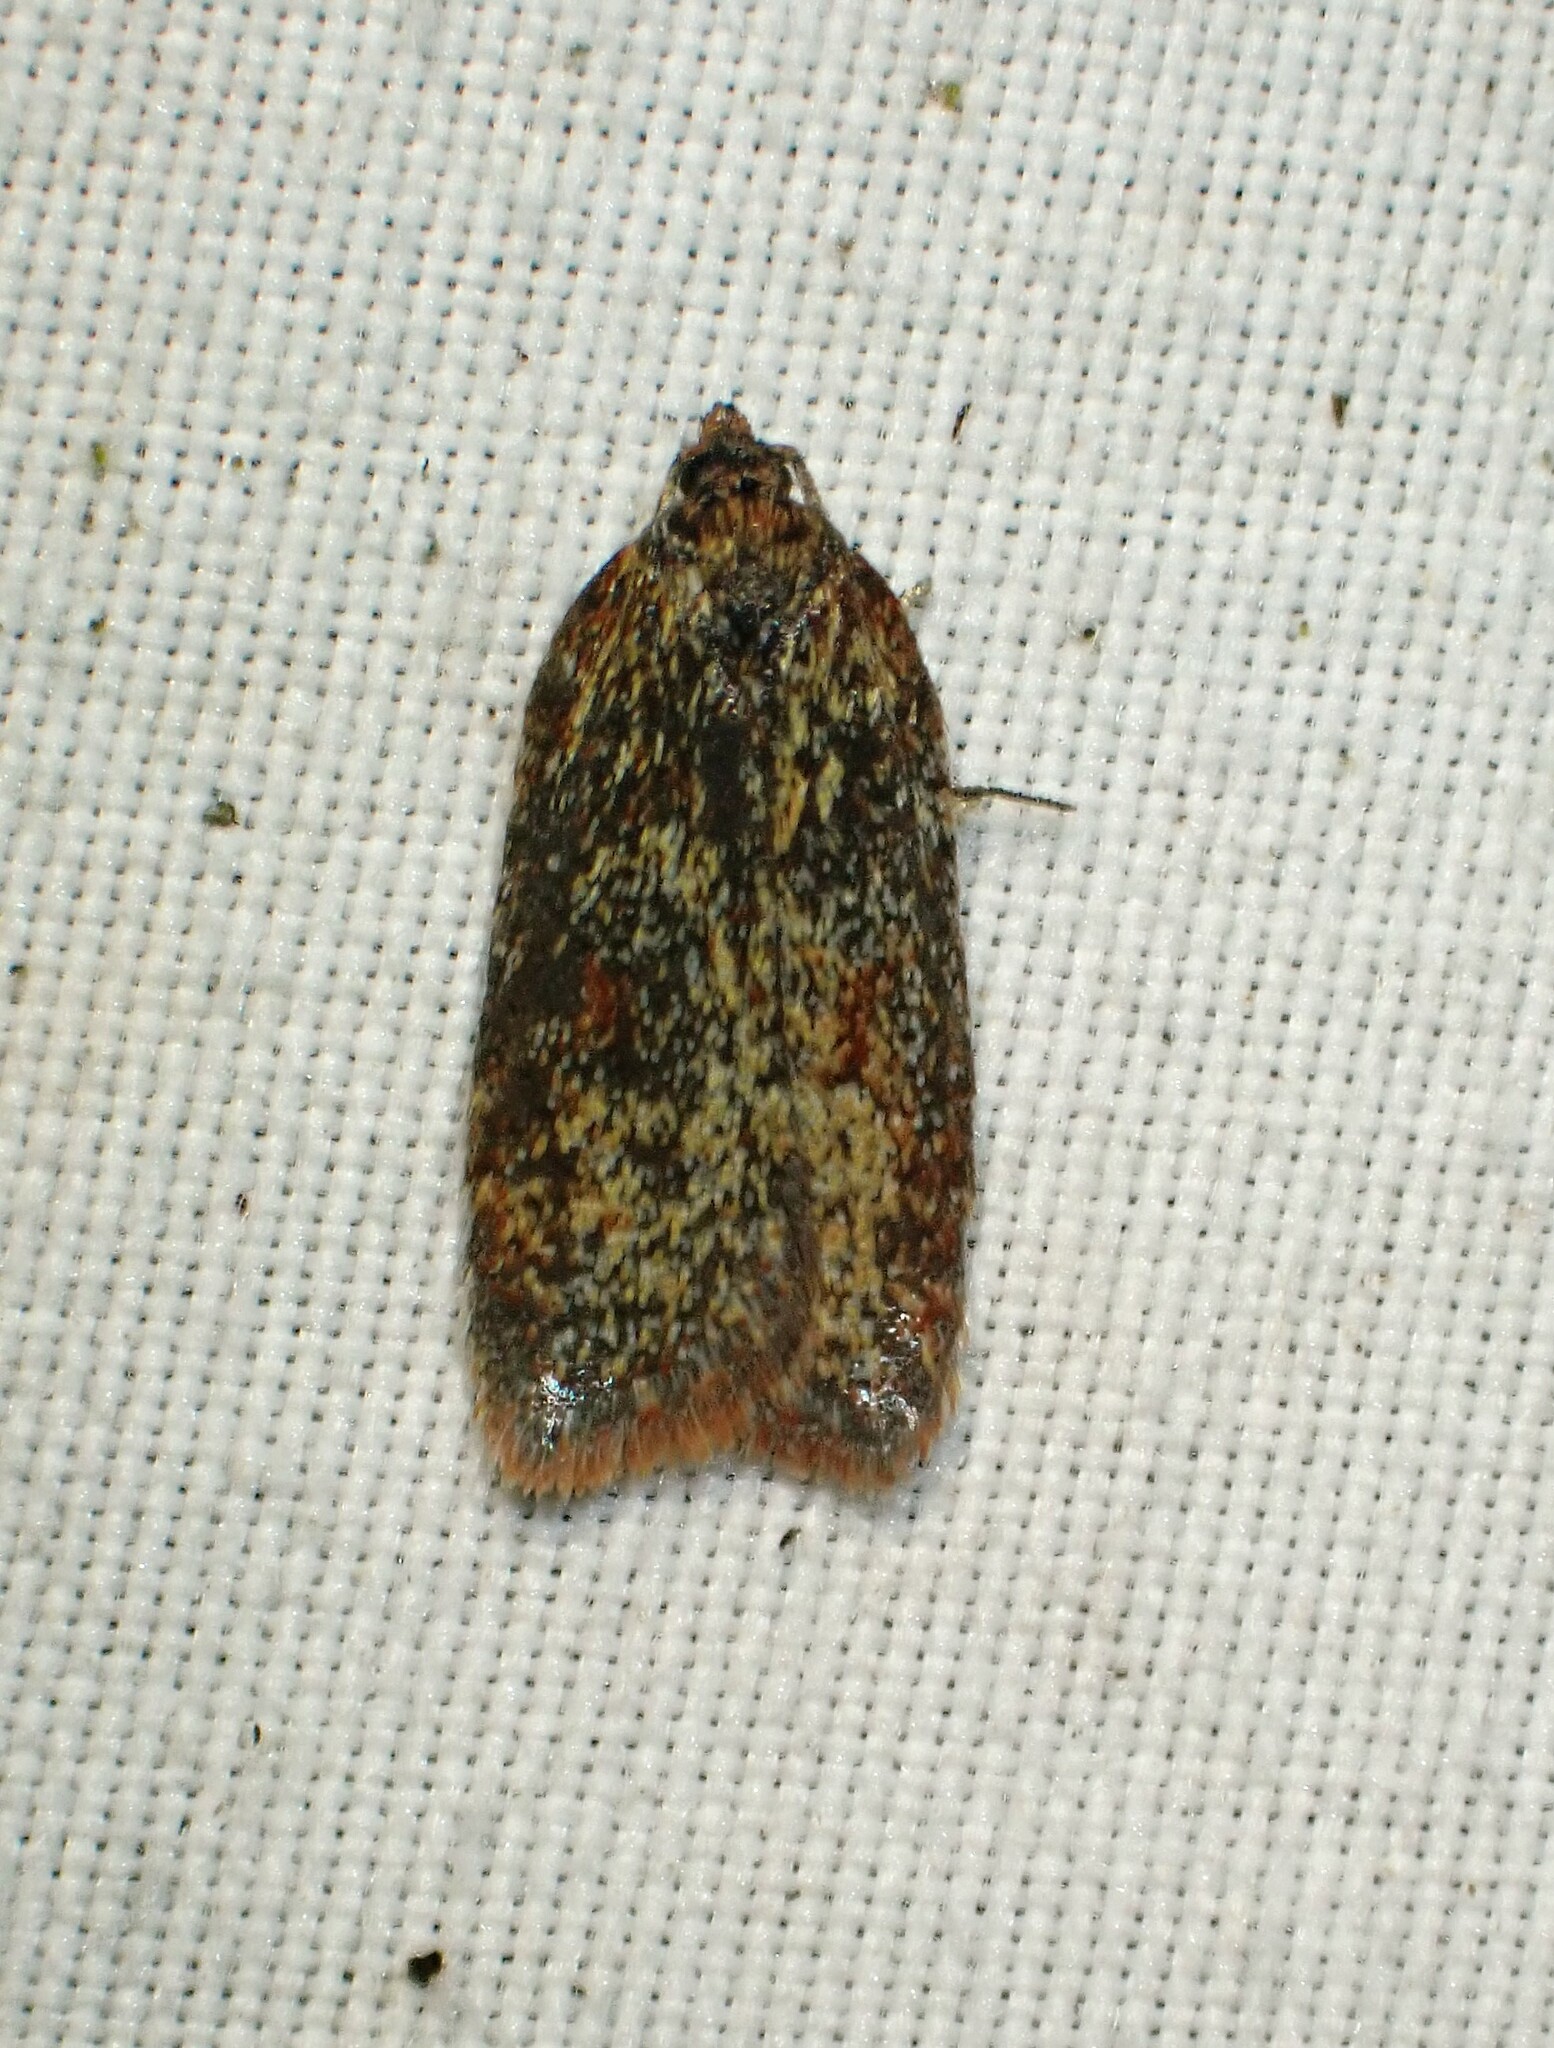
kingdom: Animalia
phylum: Arthropoda
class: Insecta
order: Lepidoptera
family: Tortricidae
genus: Acleris
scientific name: Acleris oxycoccana
